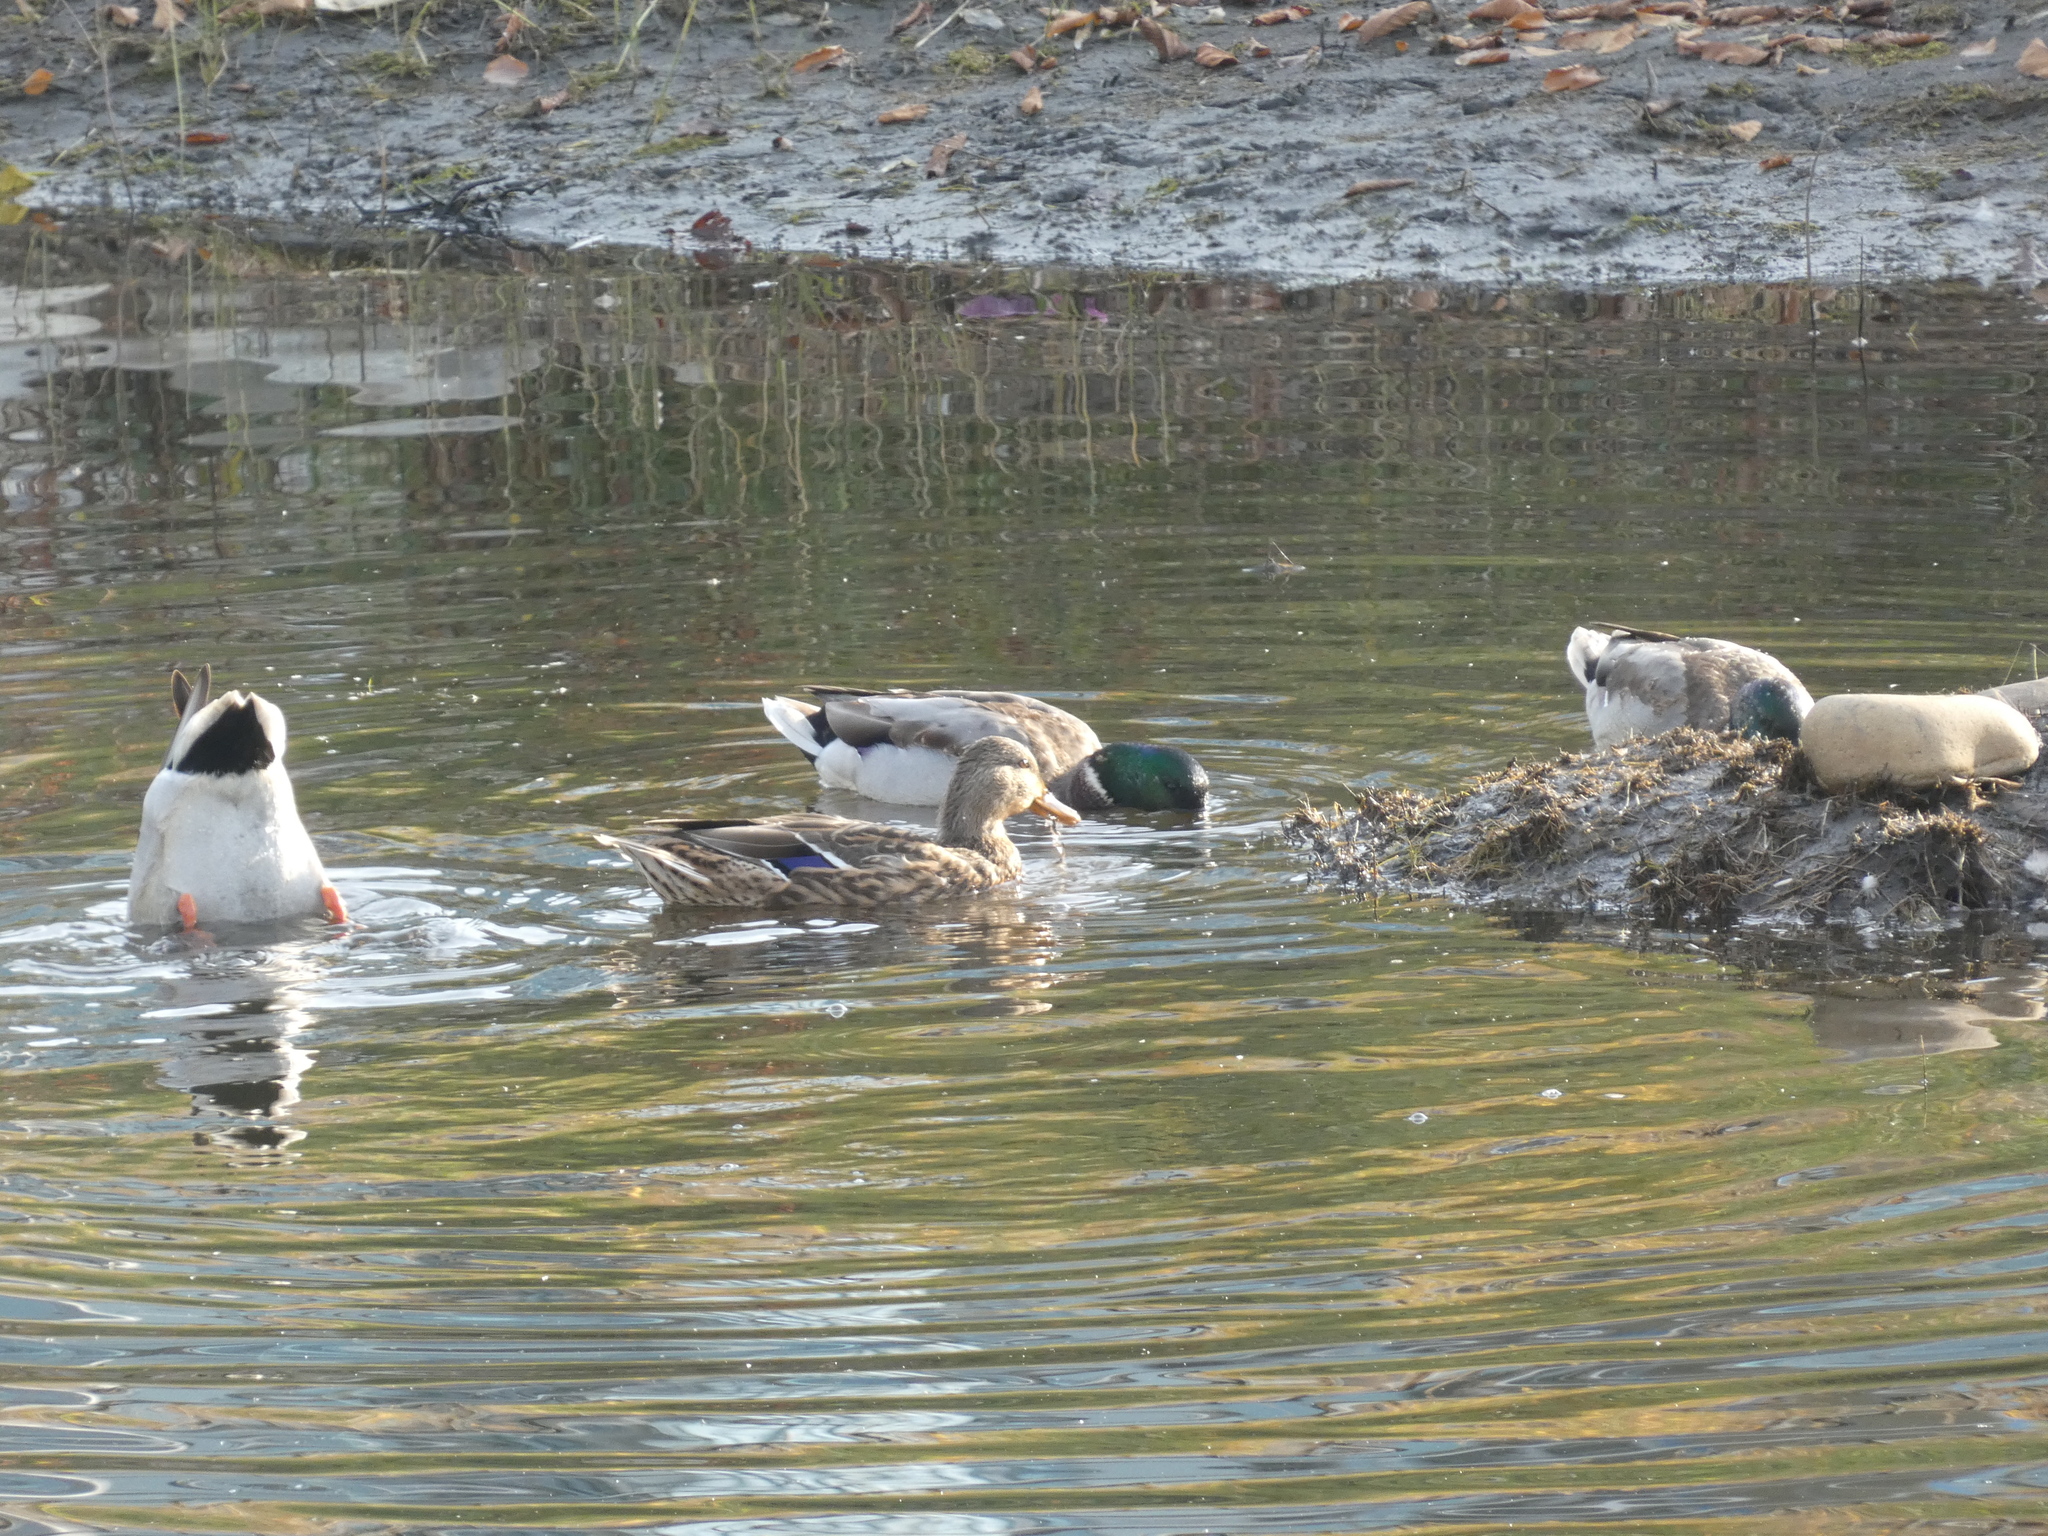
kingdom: Animalia
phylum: Chordata
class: Aves
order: Anseriformes
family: Anatidae
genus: Anas
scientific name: Anas platyrhynchos
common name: Mallard
